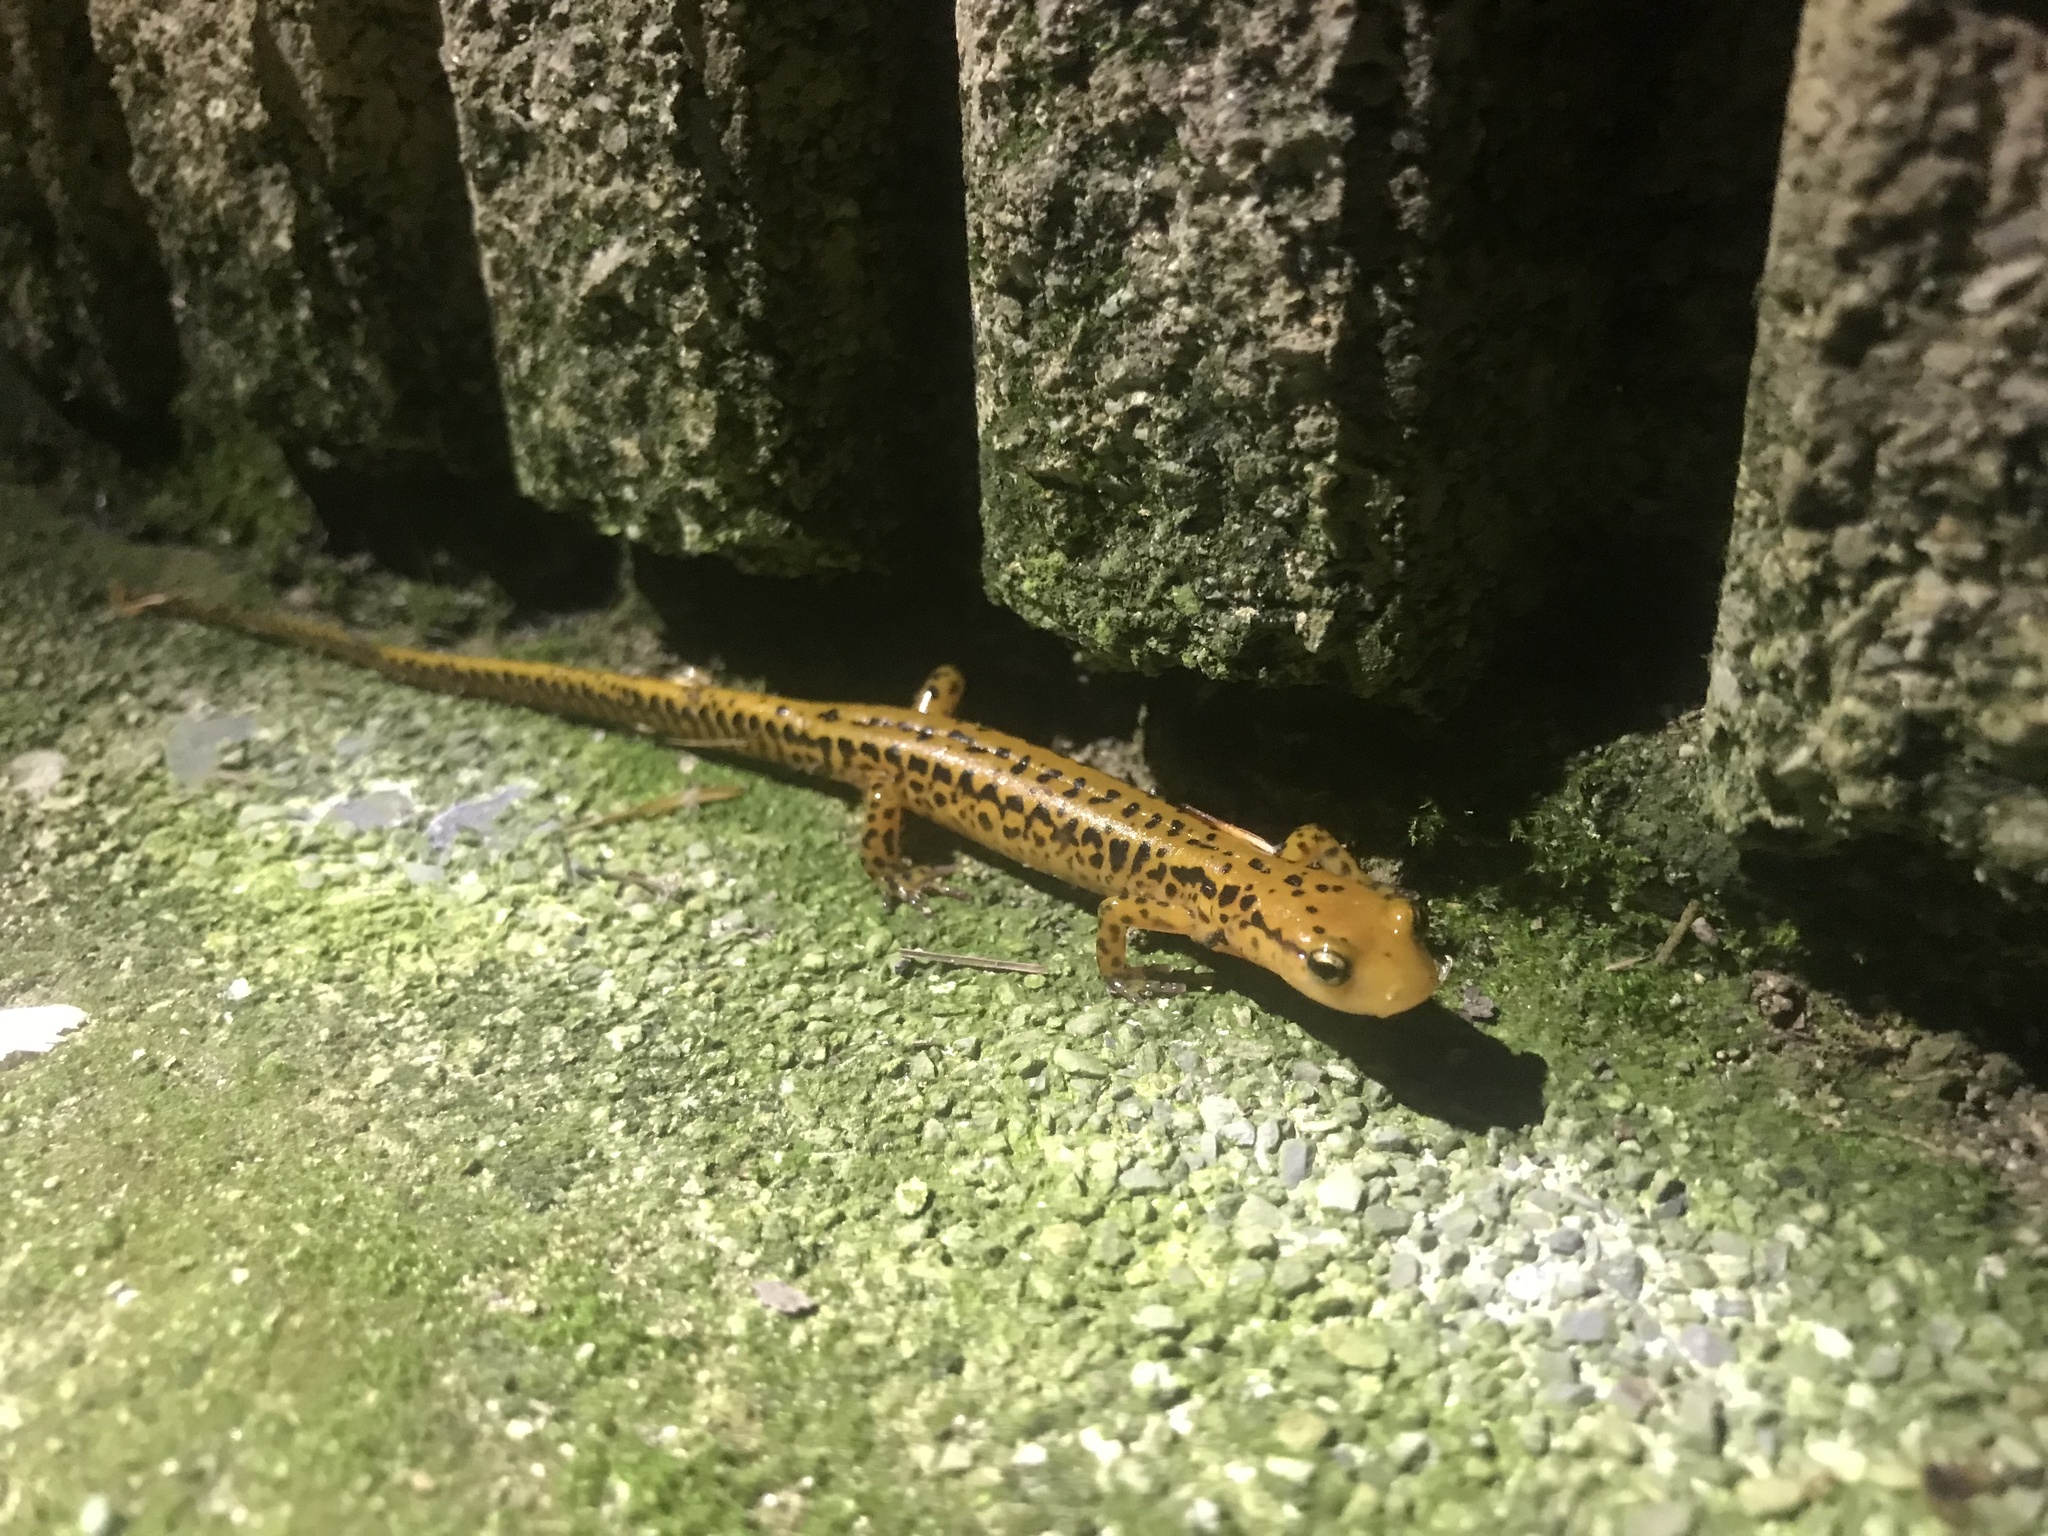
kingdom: Animalia
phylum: Chordata
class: Amphibia
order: Caudata
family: Plethodontidae
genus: Eurycea
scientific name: Eurycea longicauda
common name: Long-tailed salamander
